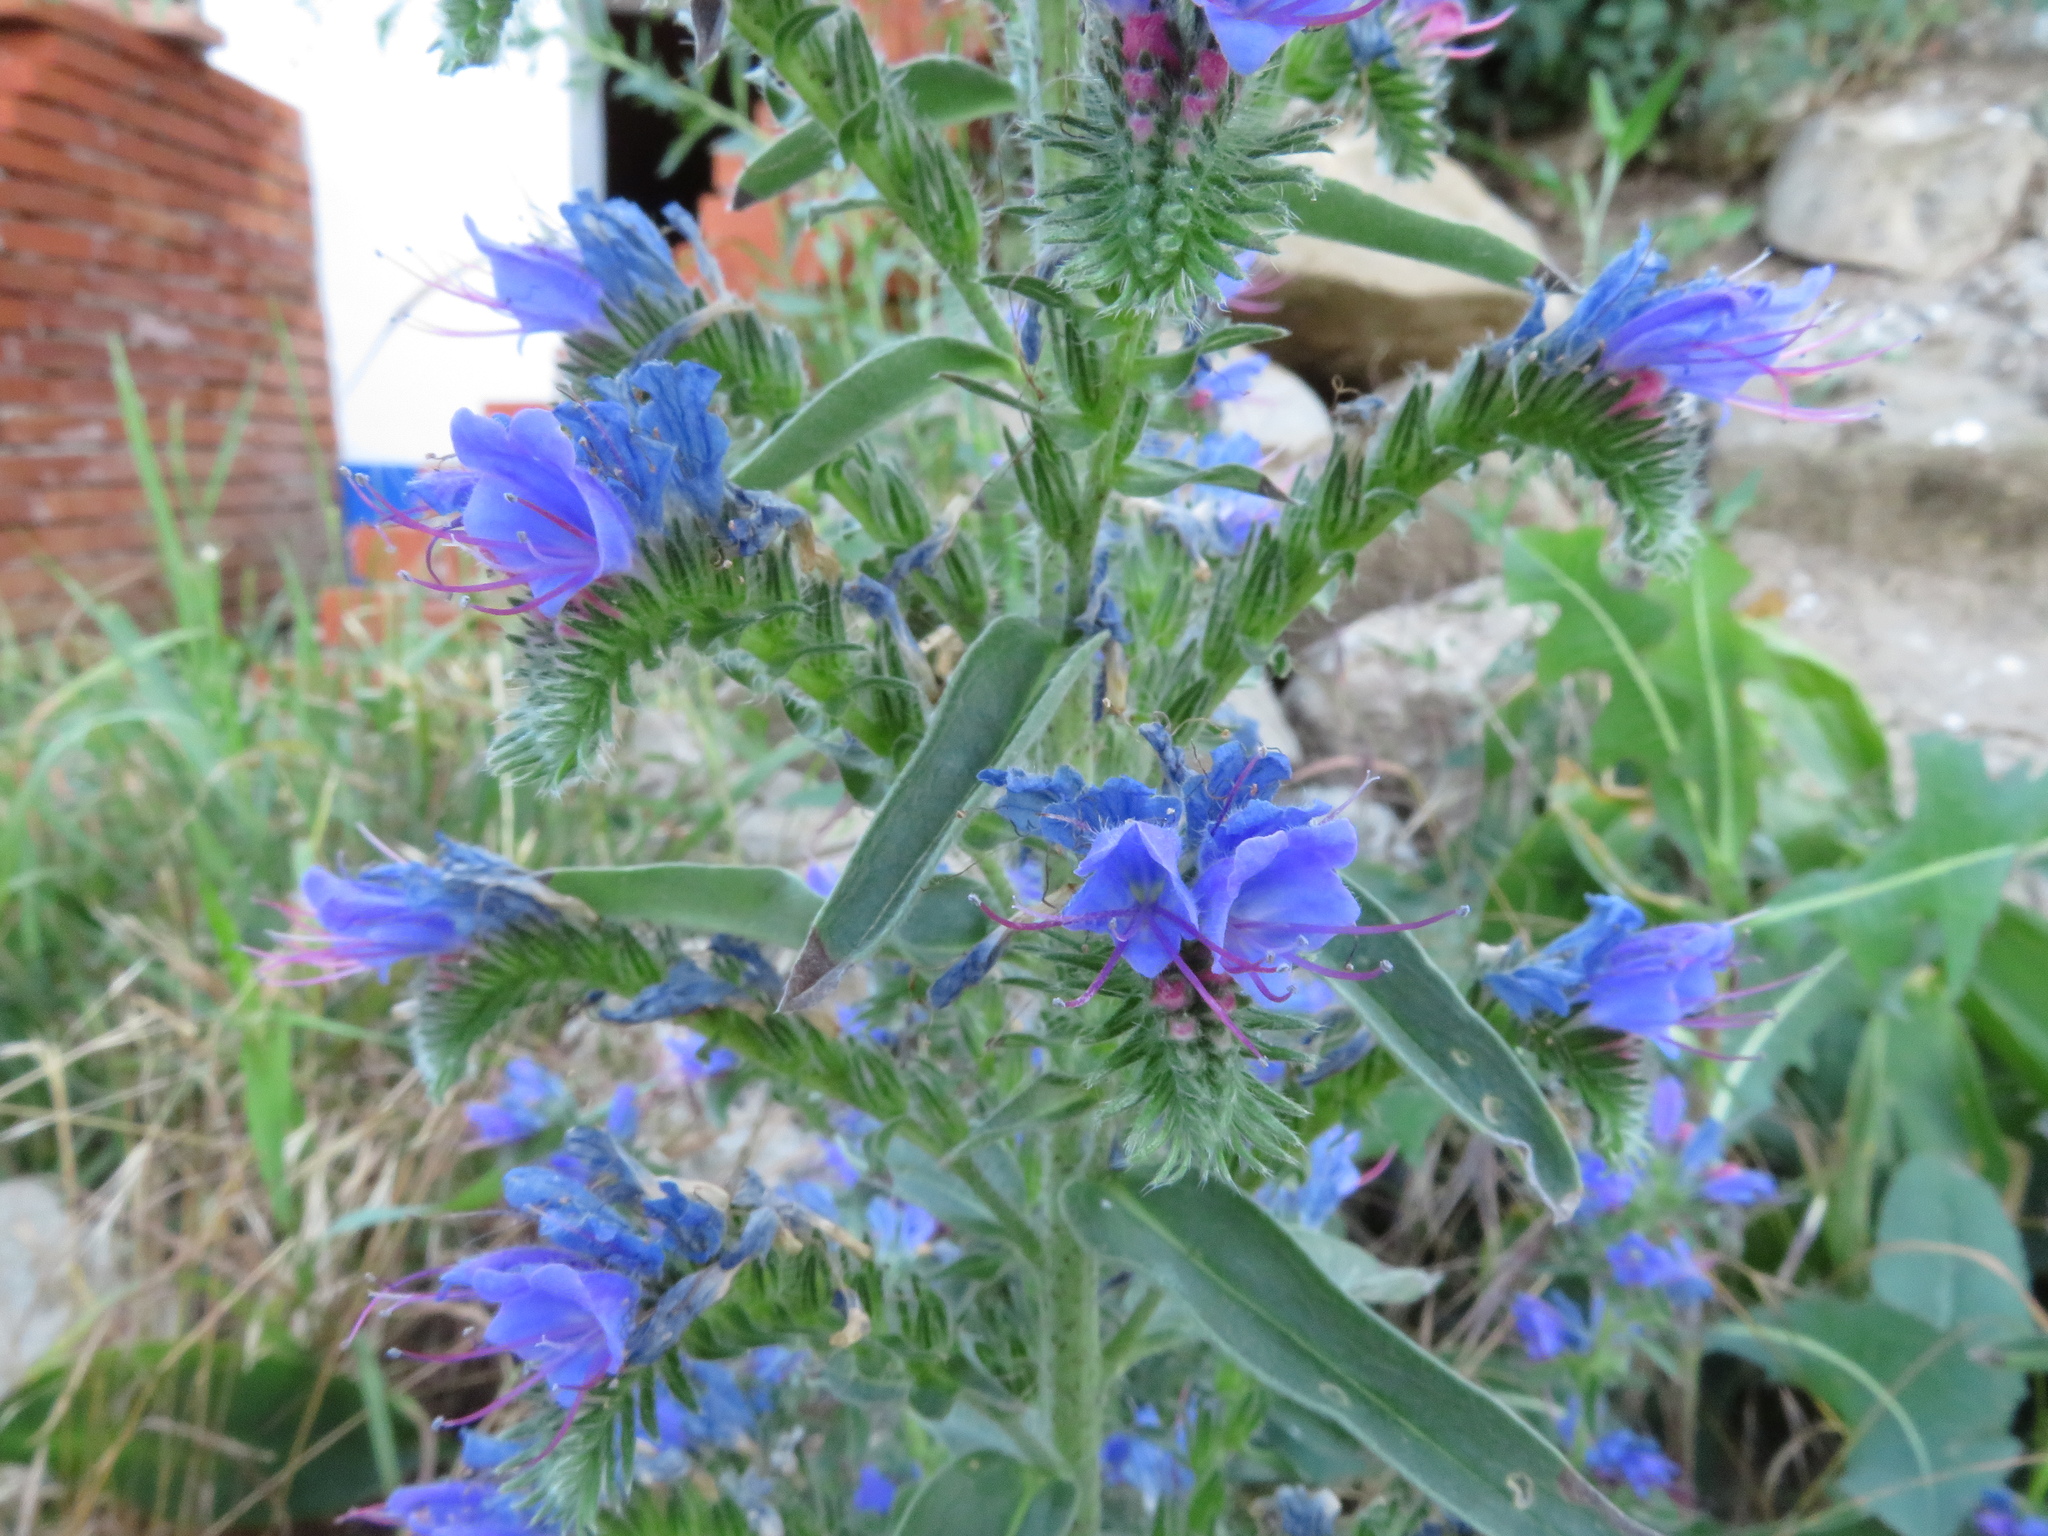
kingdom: Plantae
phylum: Tracheophyta
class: Magnoliopsida
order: Boraginales
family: Boraginaceae
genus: Echium
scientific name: Echium vulgare
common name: Common viper's bugloss
